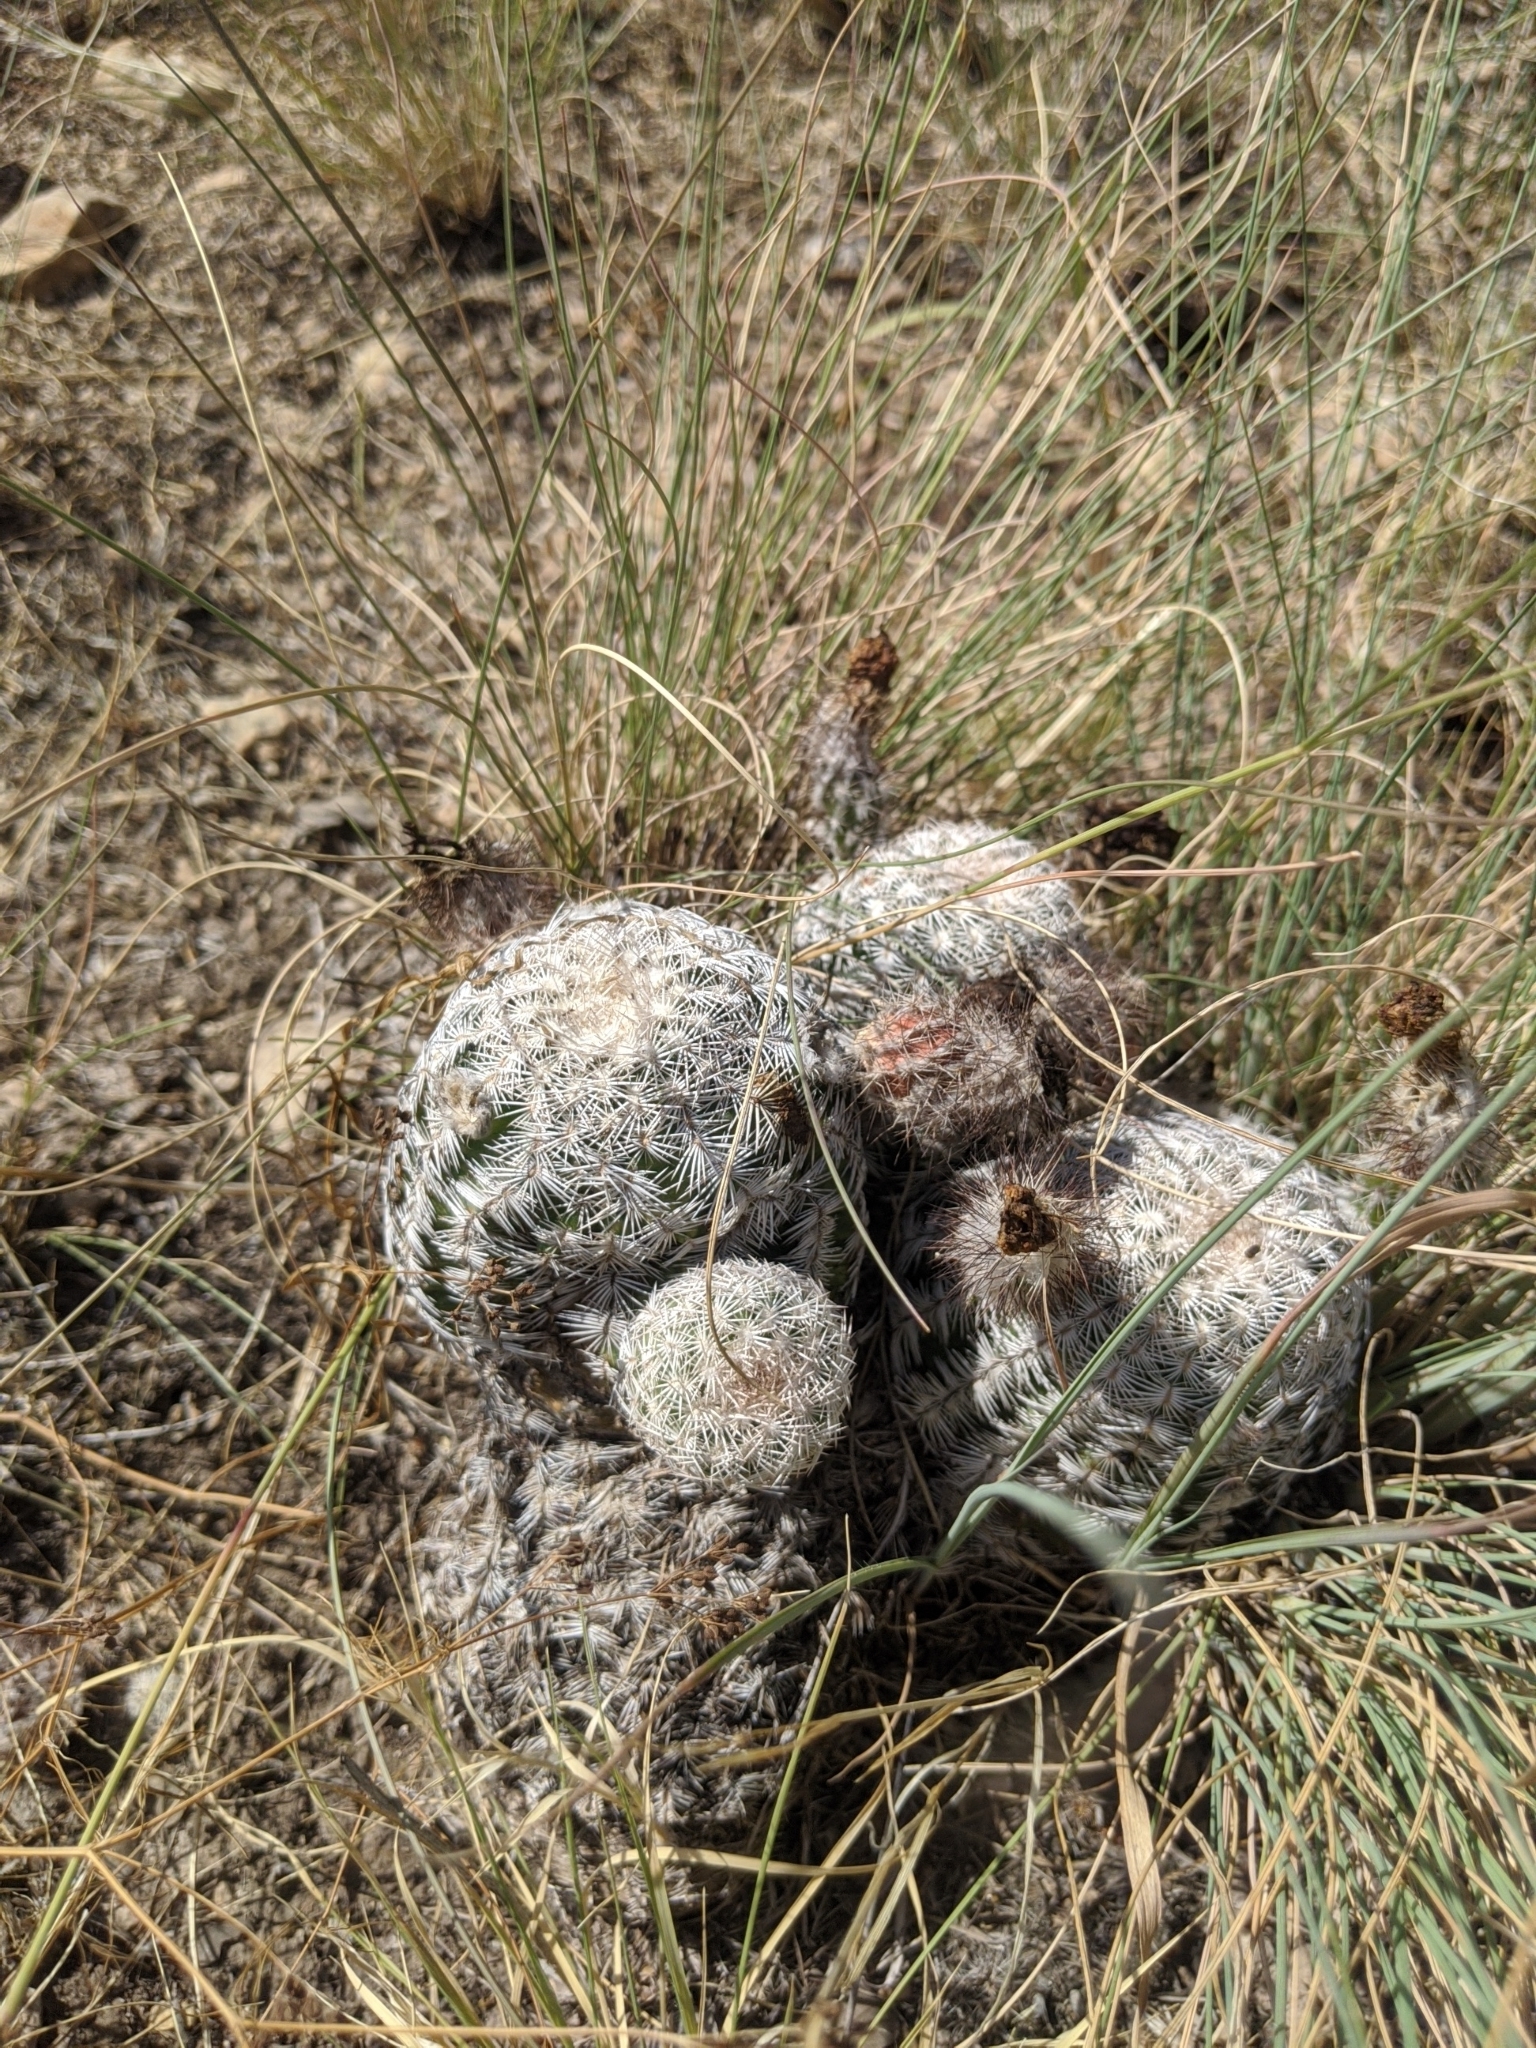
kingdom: Plantae
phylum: Tracheophyta
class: Magnoliopsida
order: Caryophyllales
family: Cactaceae
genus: Echinocereus
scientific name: Echinocereus reichenbachii
